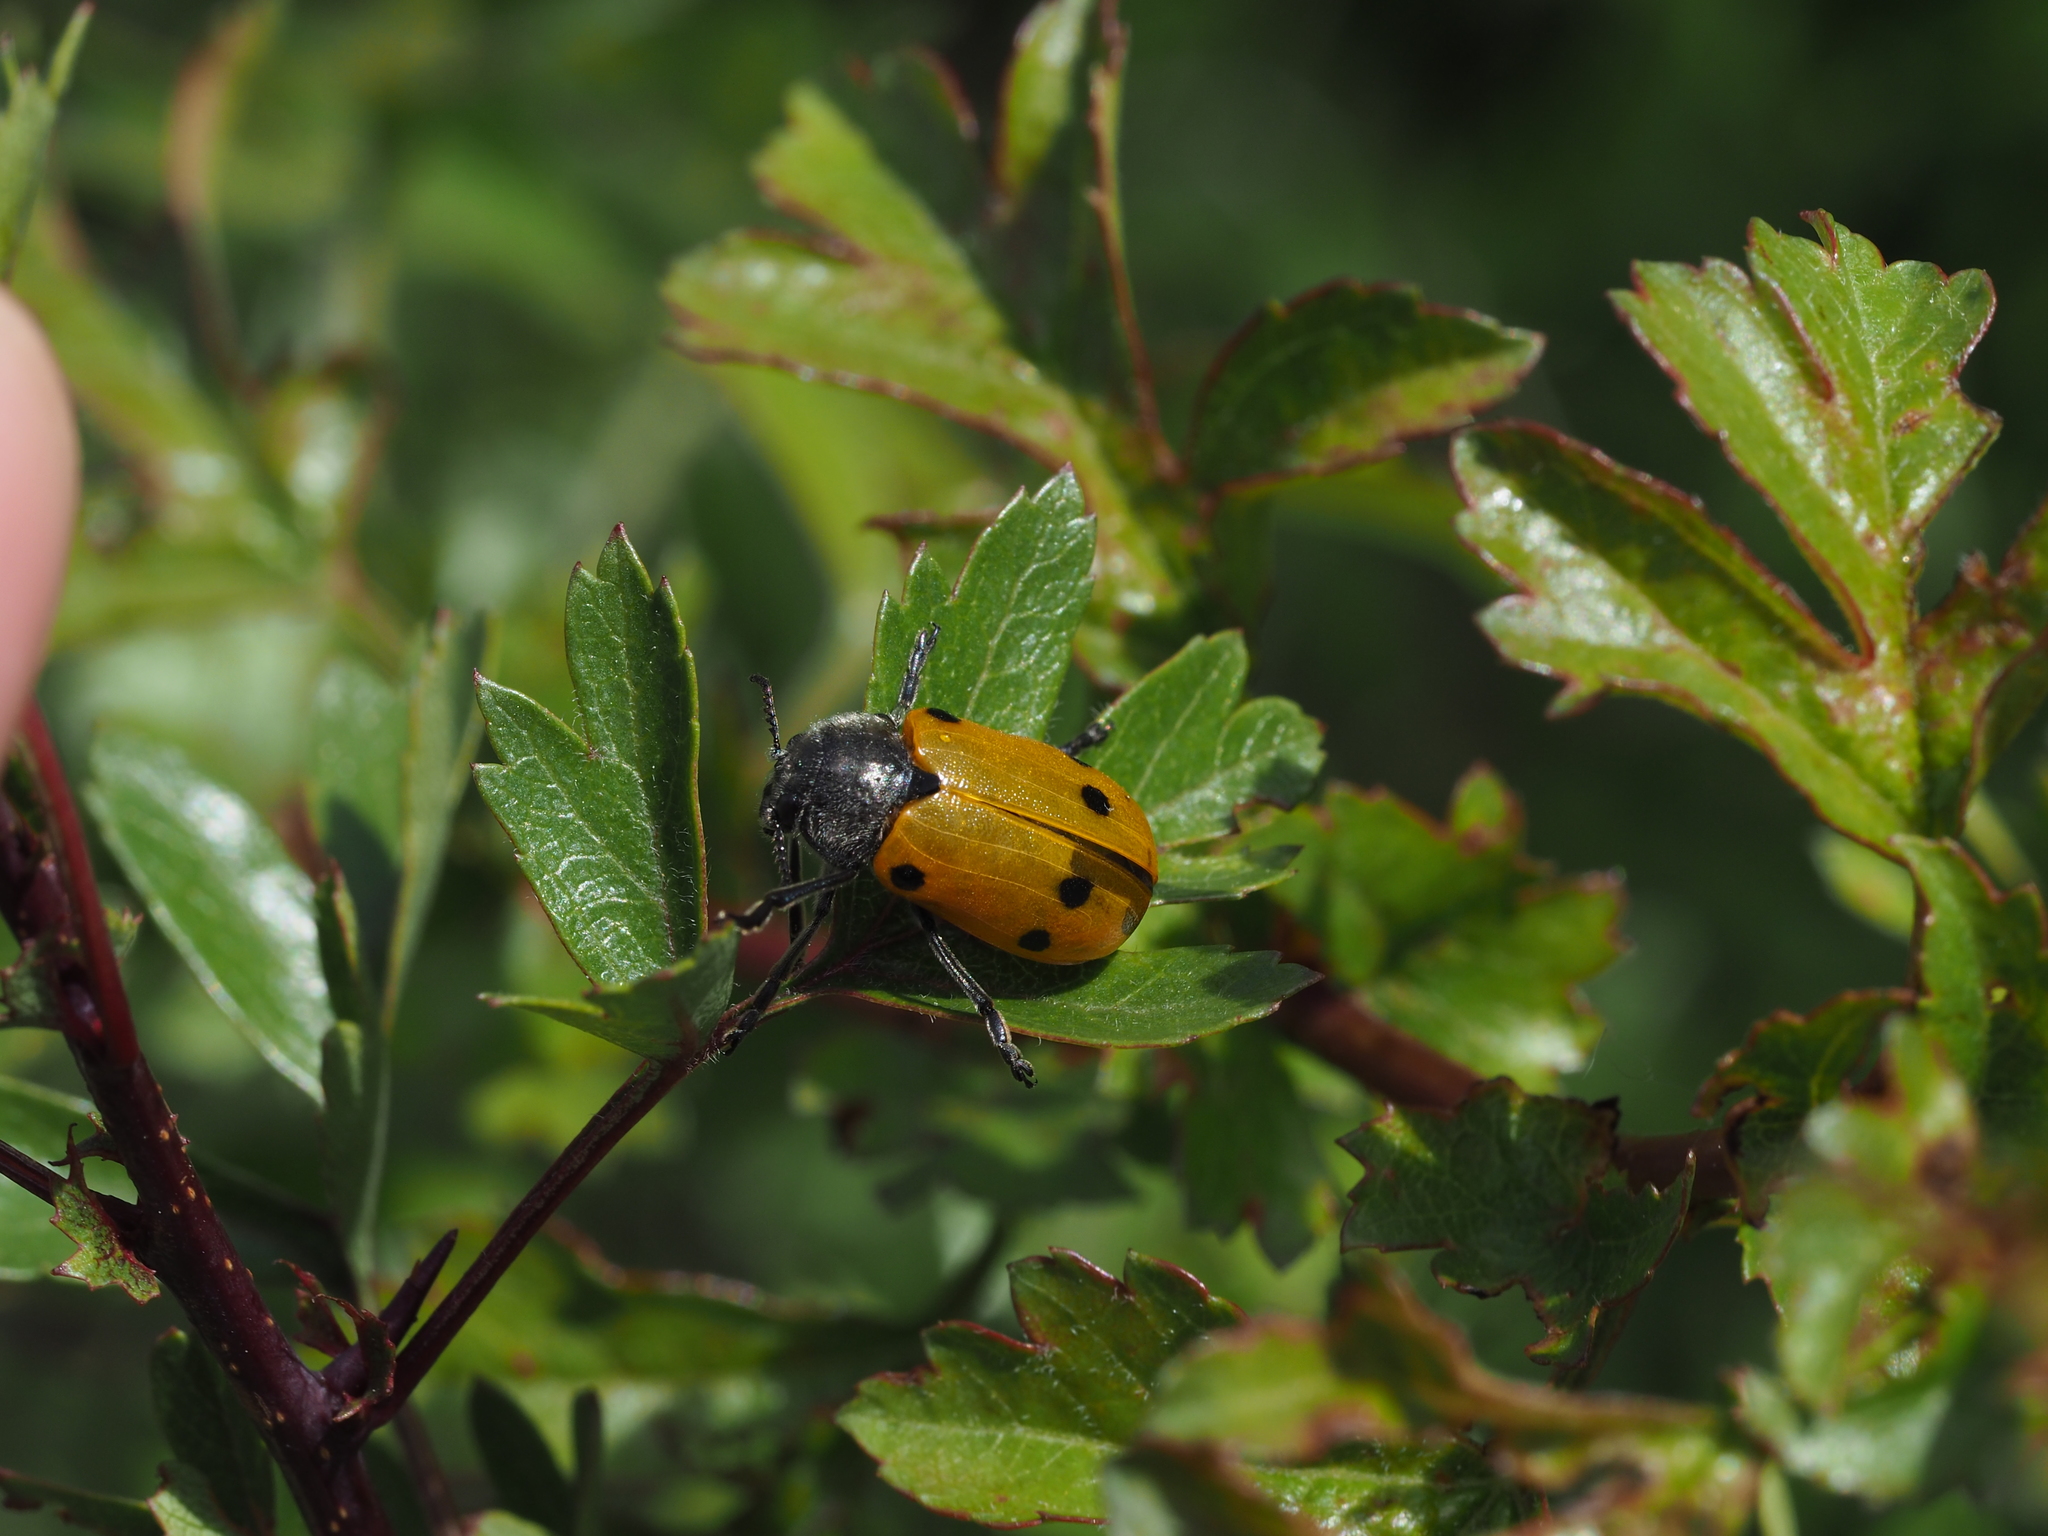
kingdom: Animalia
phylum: Arthropoda
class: Insecta
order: Coleoptera
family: Chrysomelidae
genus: Lachnaia
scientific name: Lachnaia sexpunctata
